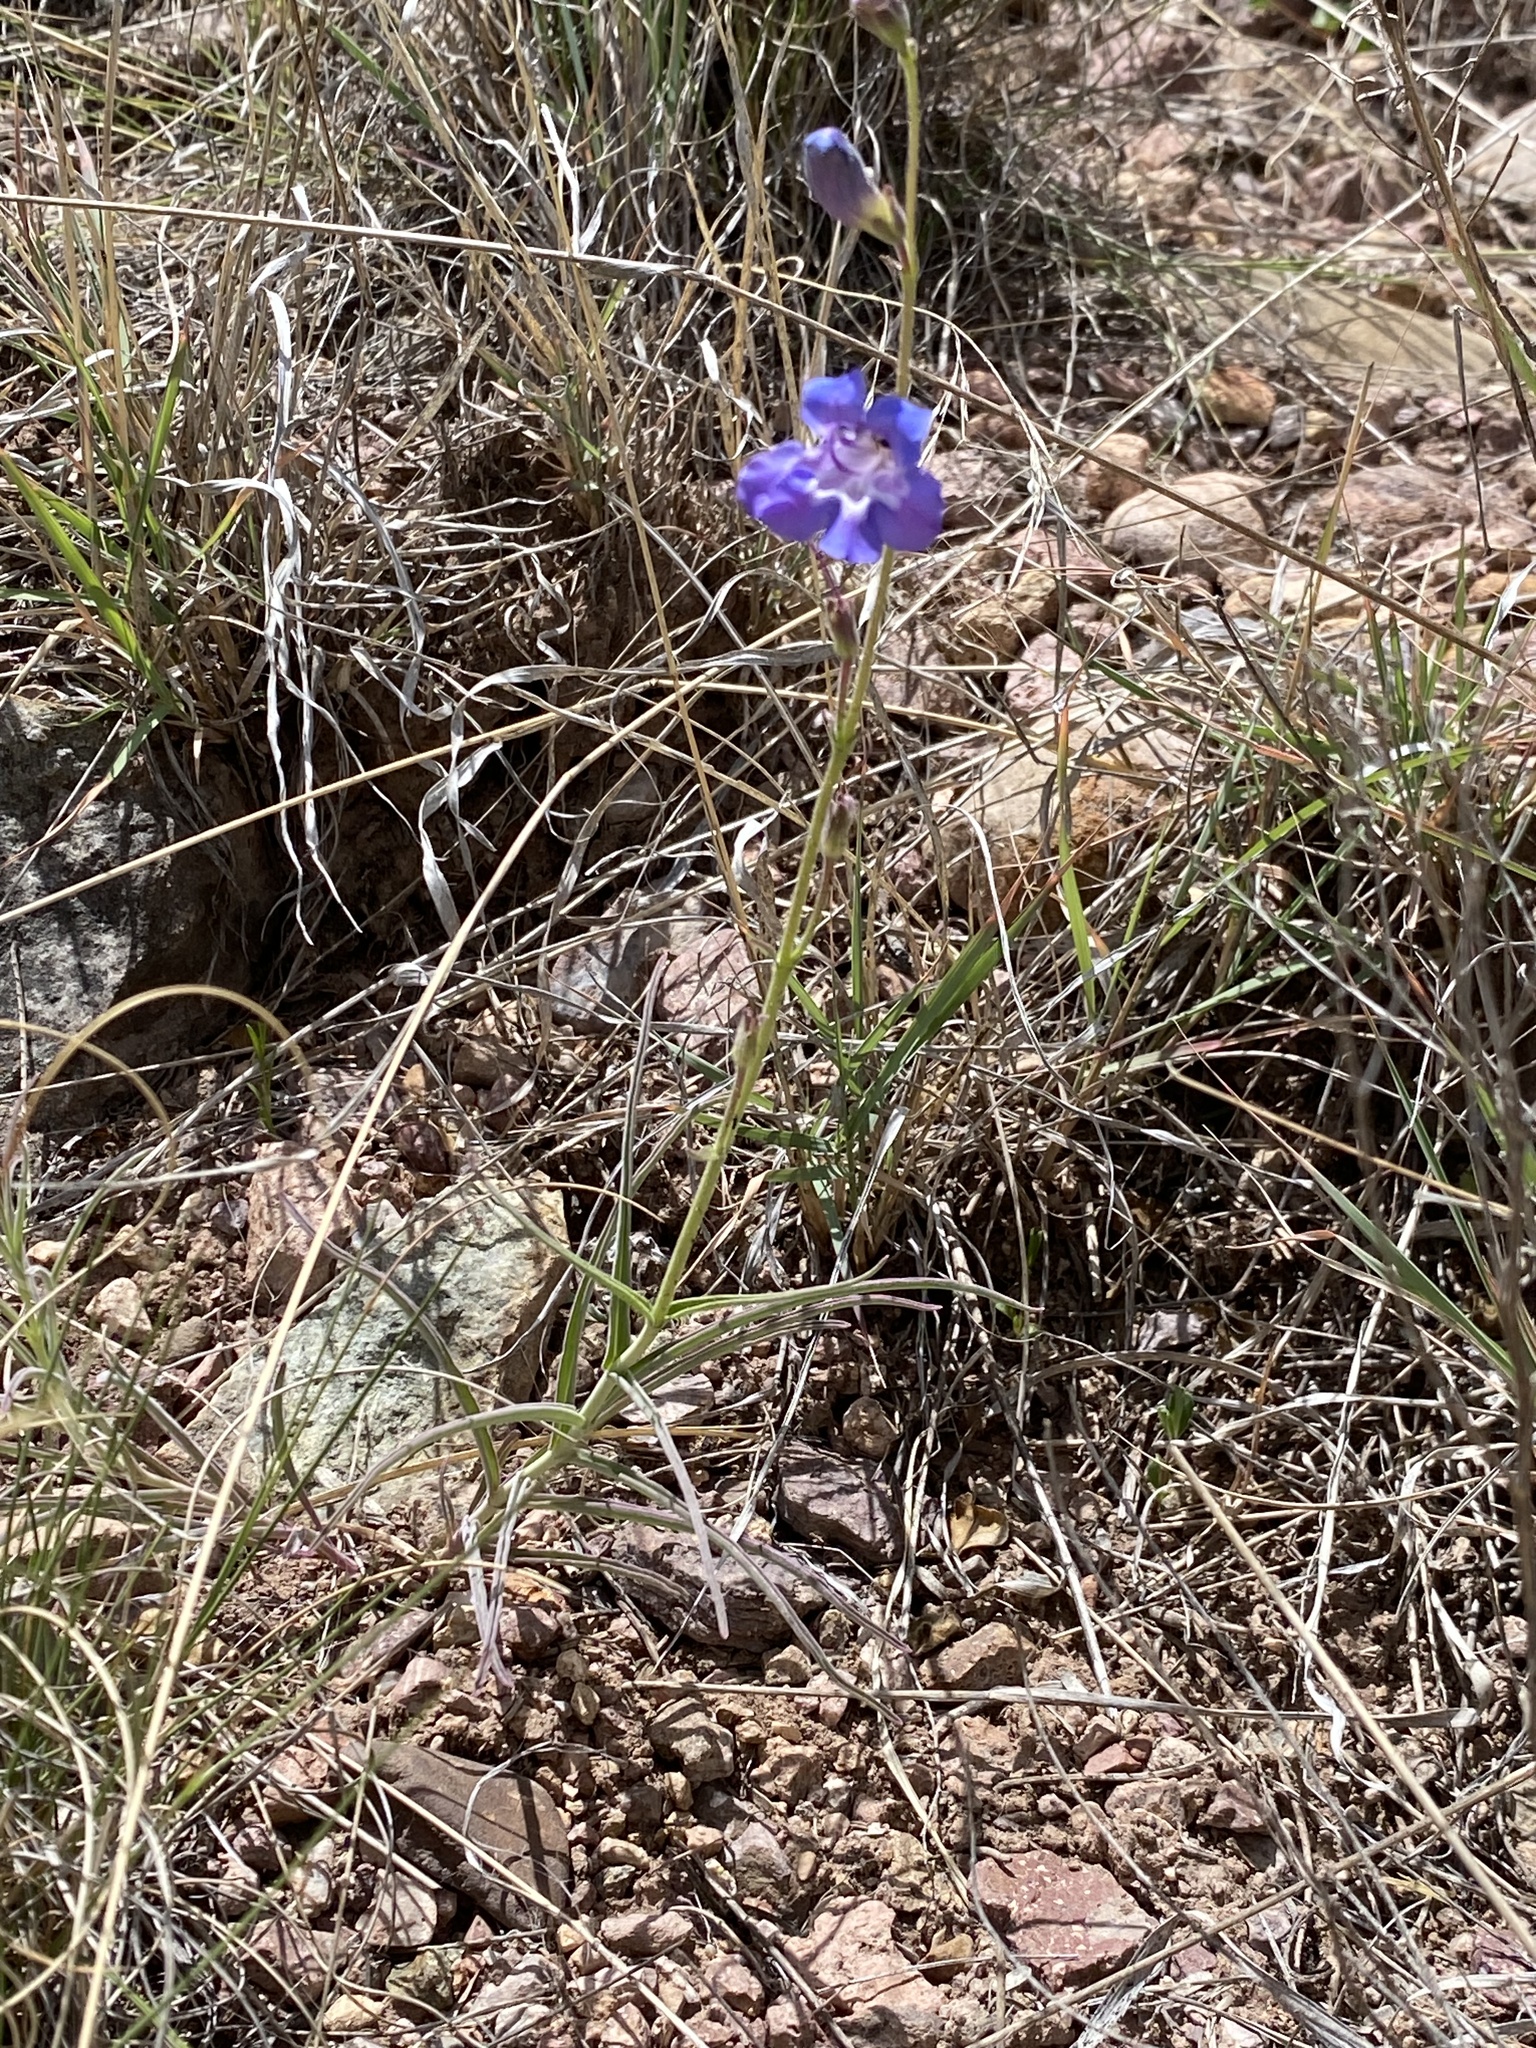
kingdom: Plantae
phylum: Tracheophyta
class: Magnoliopsida
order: Lamiales
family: Plantaginaceae
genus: Penstemon
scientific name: Penstemon dasyphyllus
